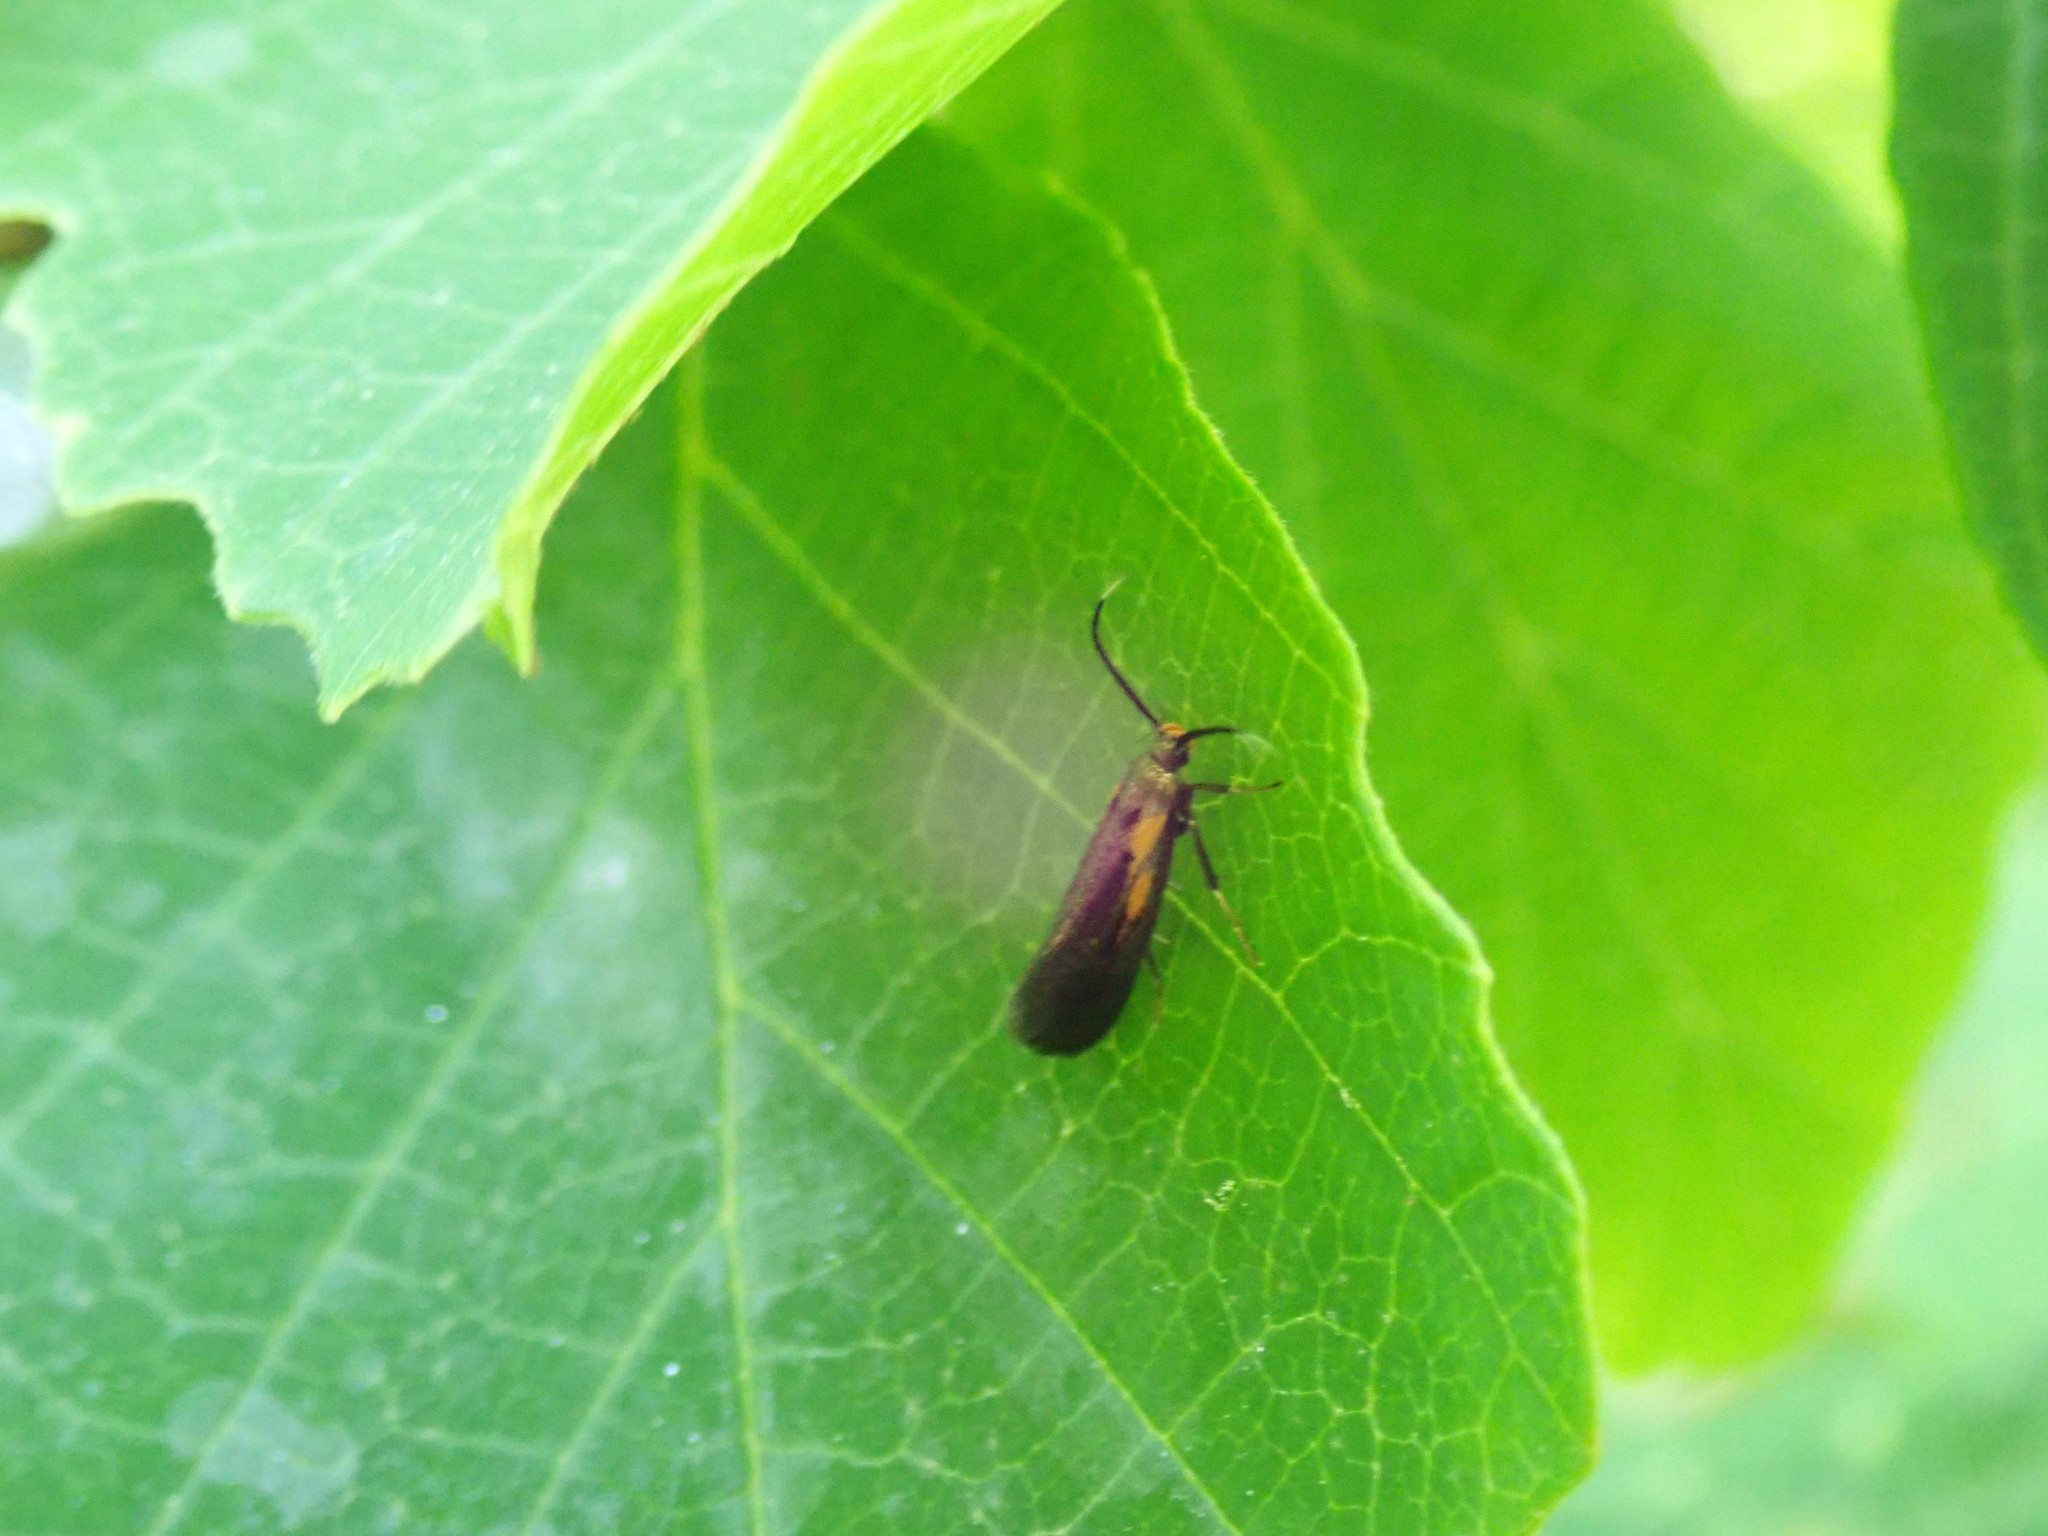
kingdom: Animalia
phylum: Arthropoda
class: Insecta
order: Lepidoptera
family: Oecophoridae
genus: Mathildana
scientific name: Mathildana newmanella
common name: Newman's mathildana moth
